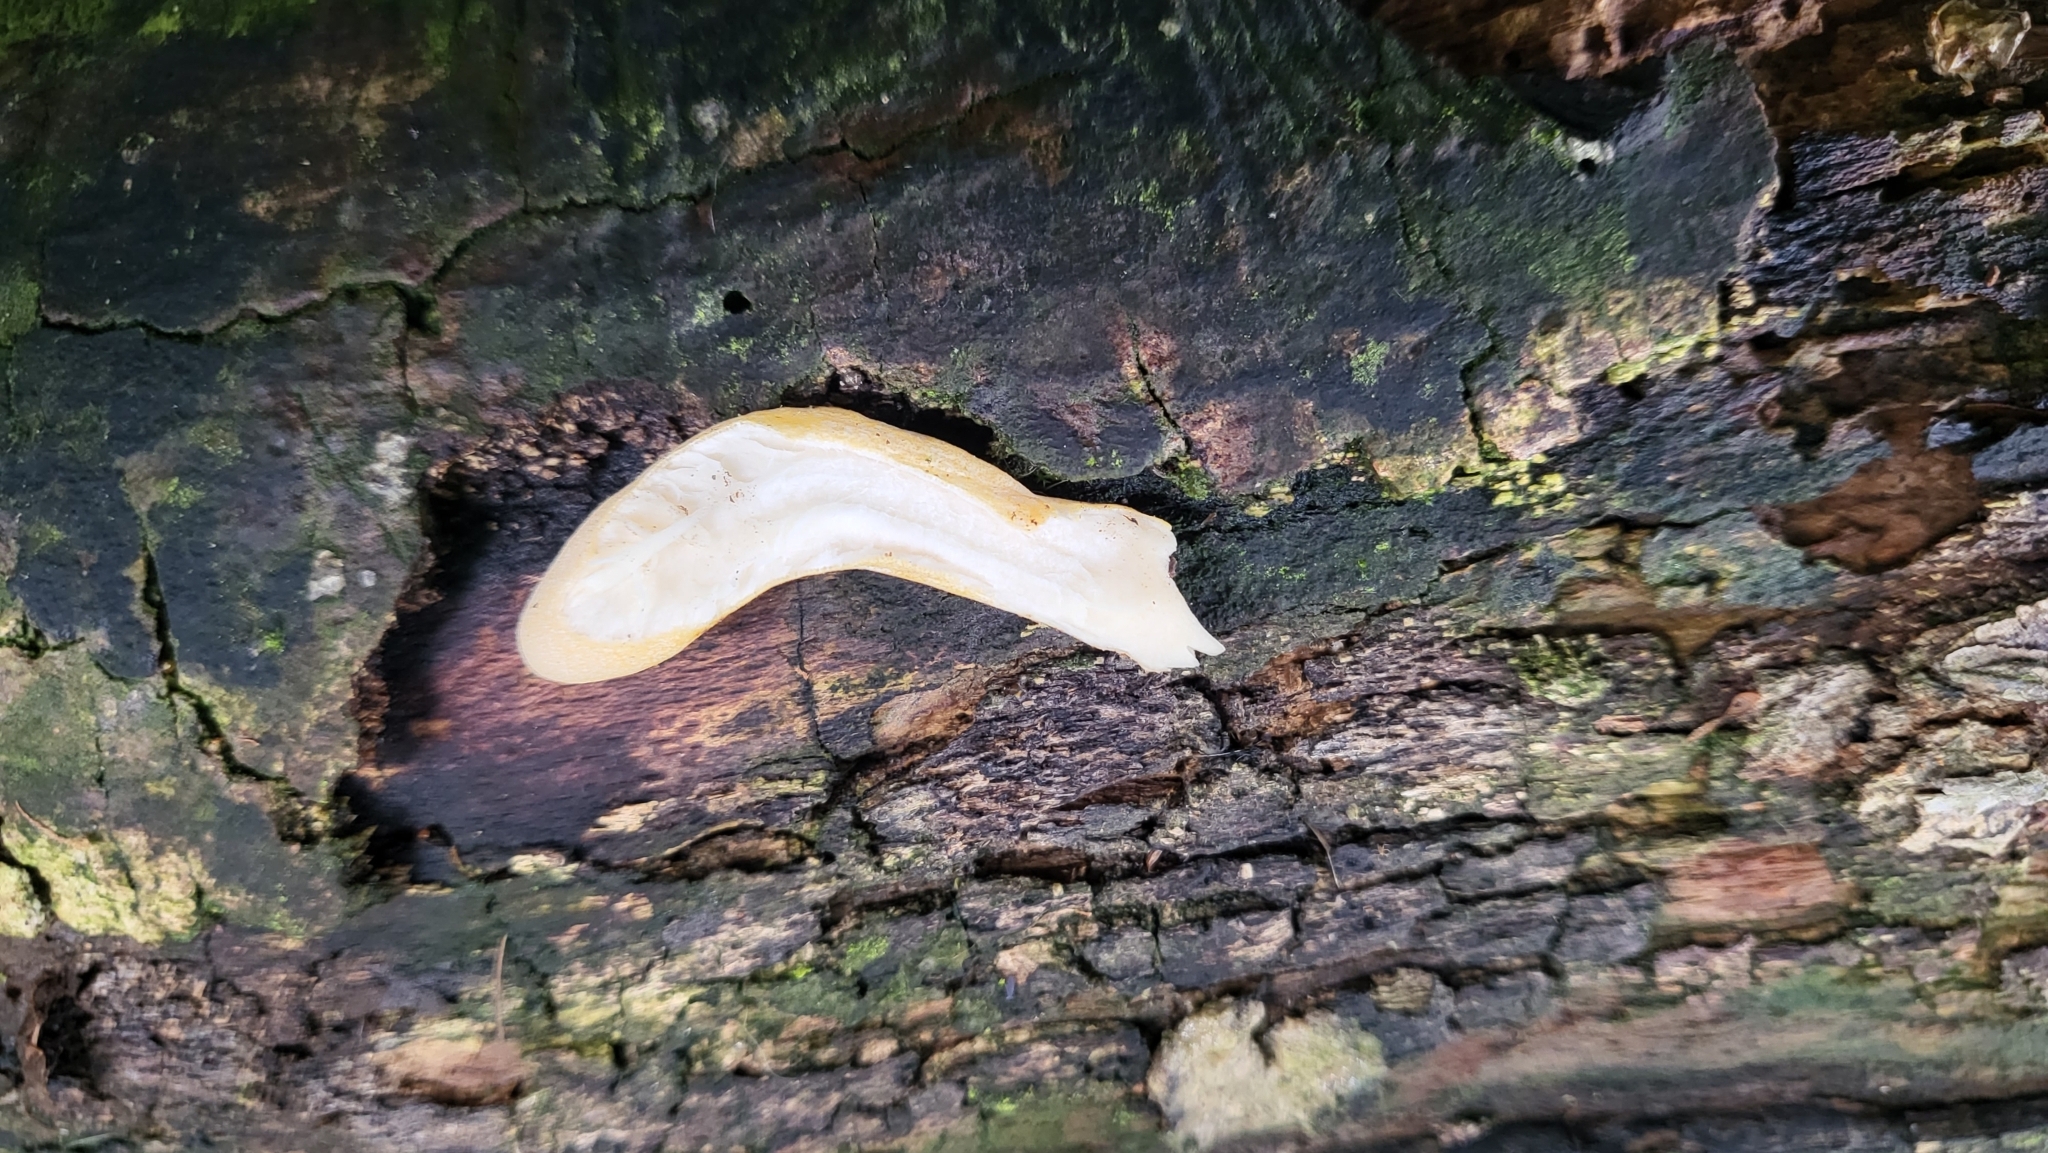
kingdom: Fungi
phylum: Ascomycota
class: Sordariomycetes
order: Xylariales
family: Xylariaceae
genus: Xylaria
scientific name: Xylaria polymorpha
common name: Dead man's fingers
